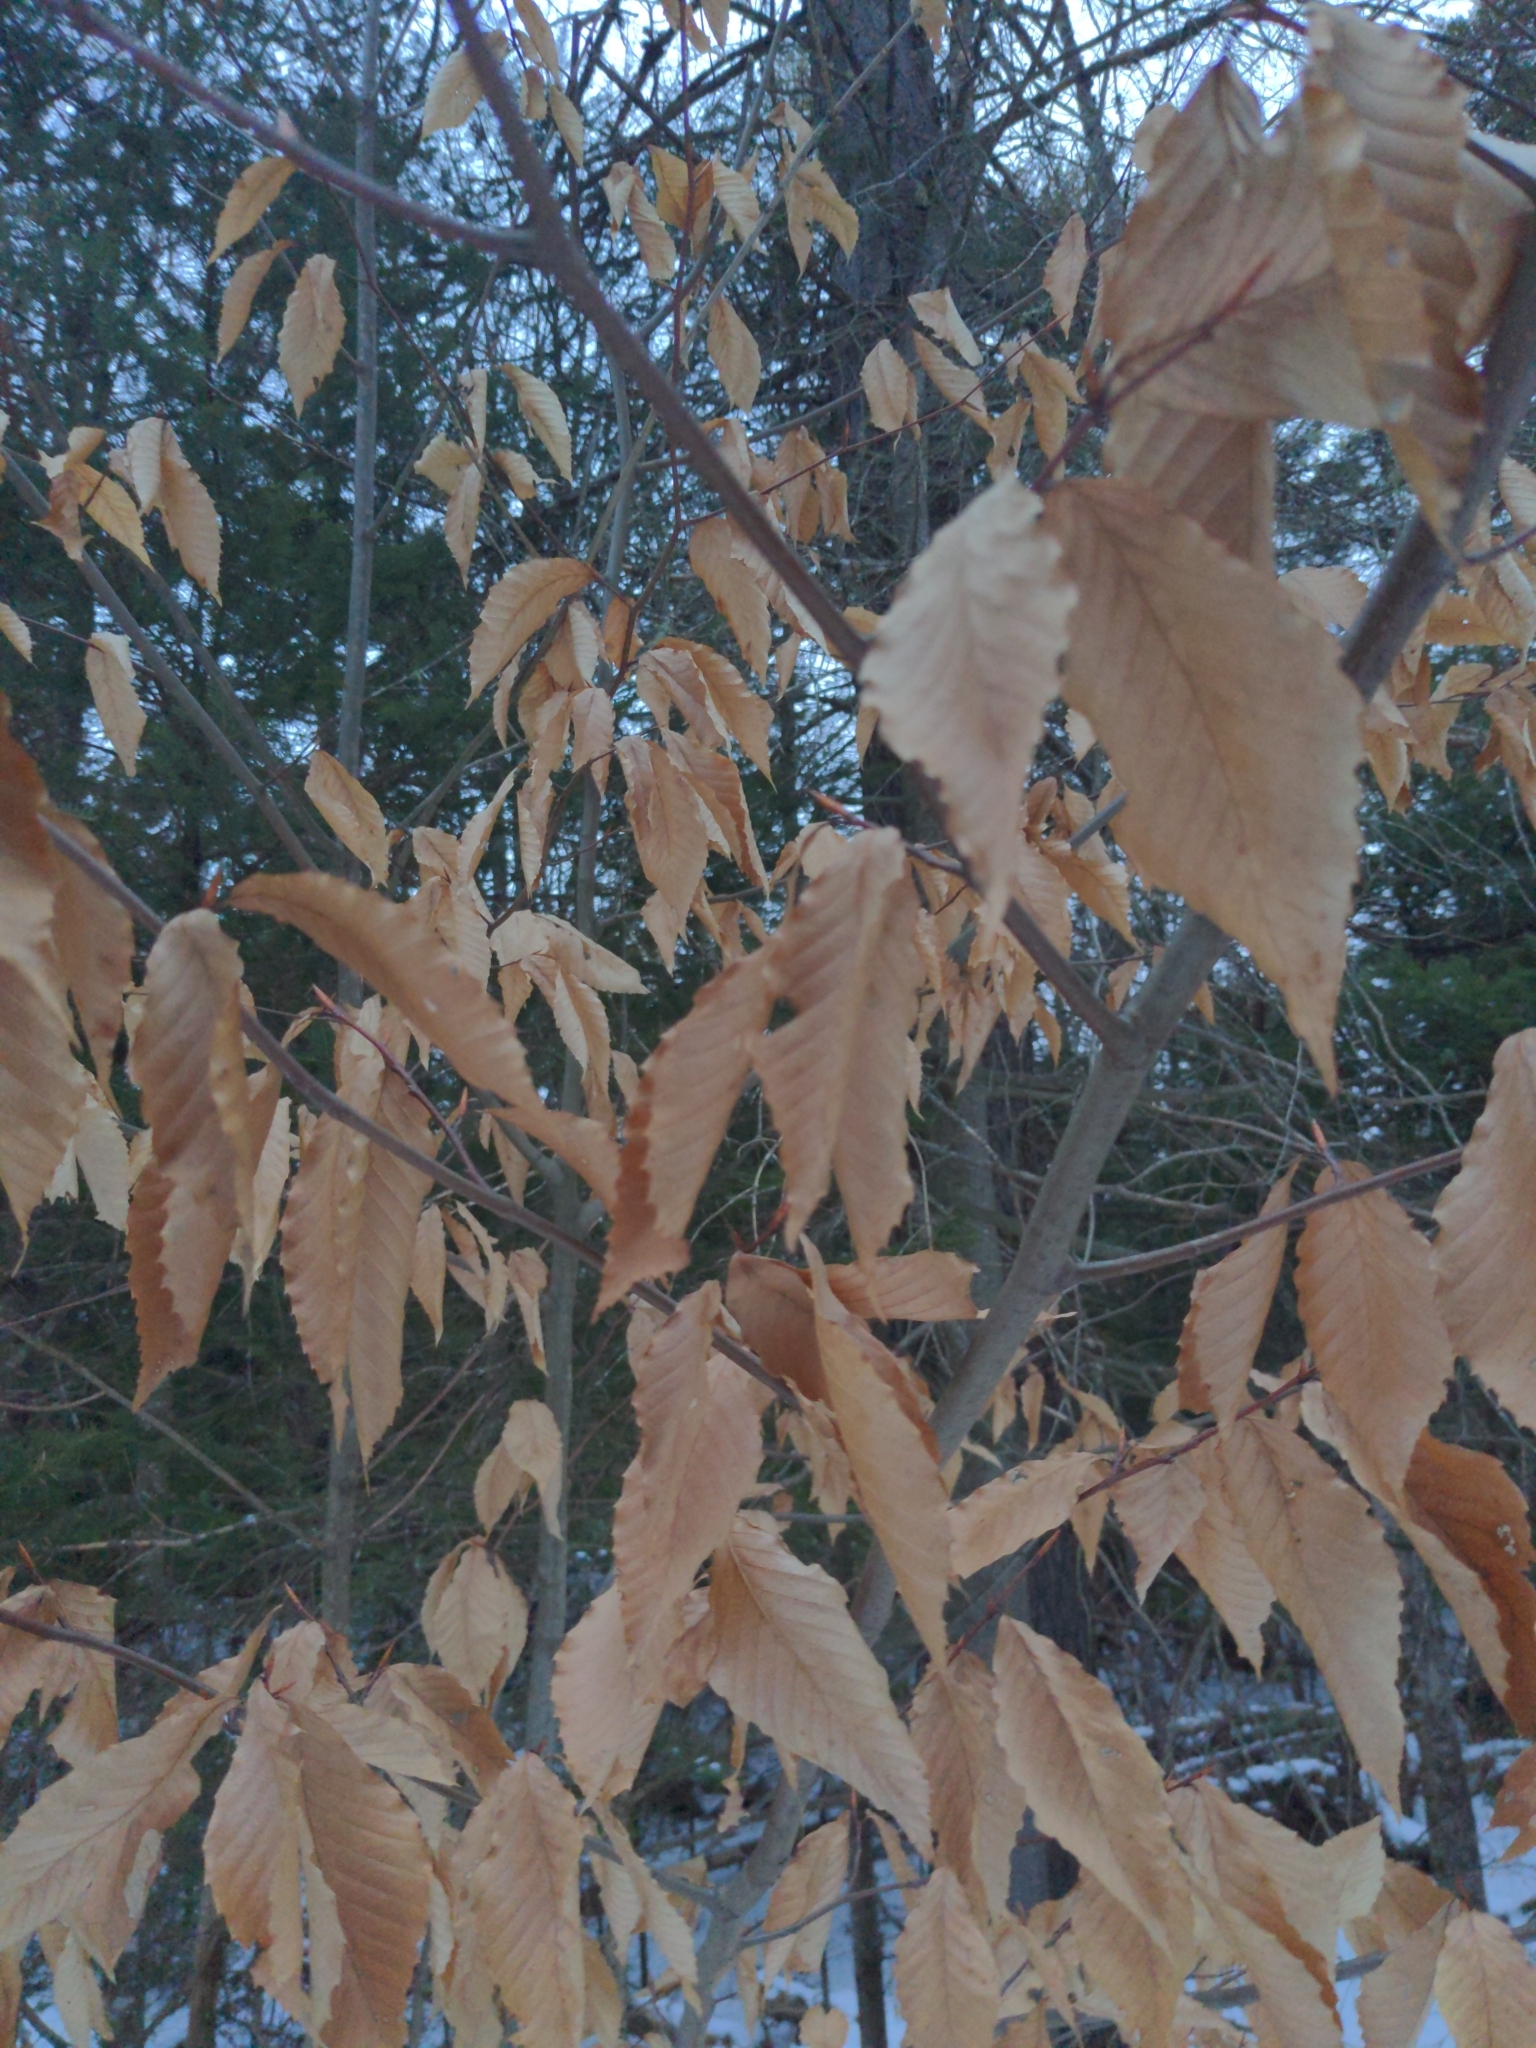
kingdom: Plantae
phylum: Tracheophyta
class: Magnoliopsida
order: Fagales
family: Fagaceae
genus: Fagus
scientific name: Fagus grandifolia
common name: American beech
